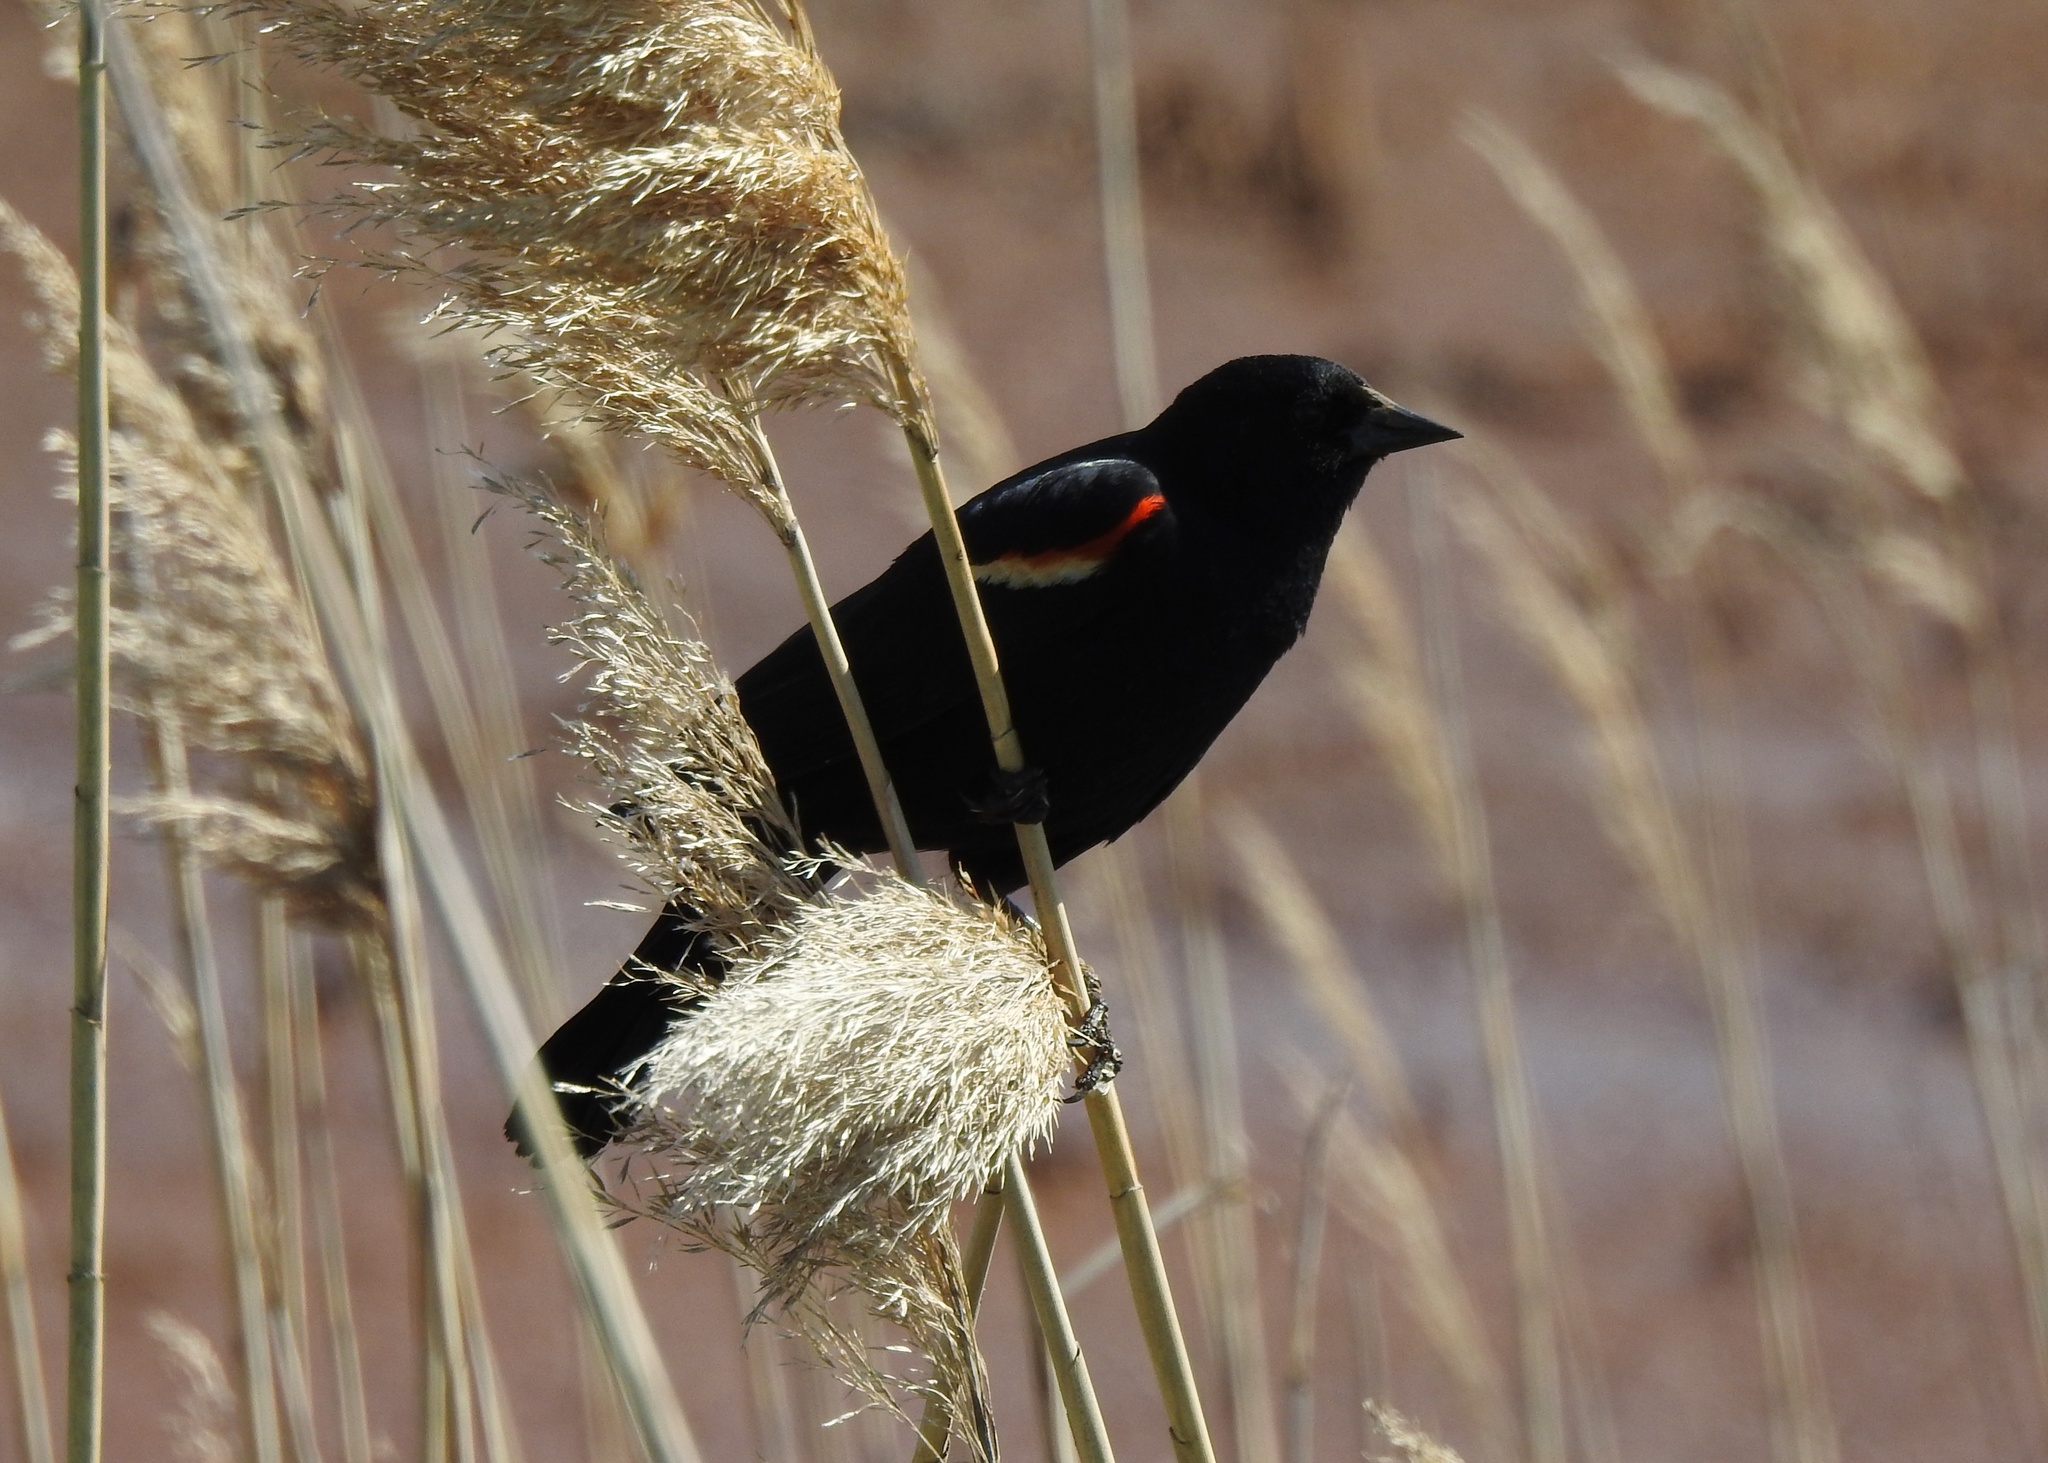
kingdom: Animalia
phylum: Chordata
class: Aves
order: Passeriformes
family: Icteridae
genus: Agelaius
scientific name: Agelaius phoeniceus
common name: Red-winged blackbird
